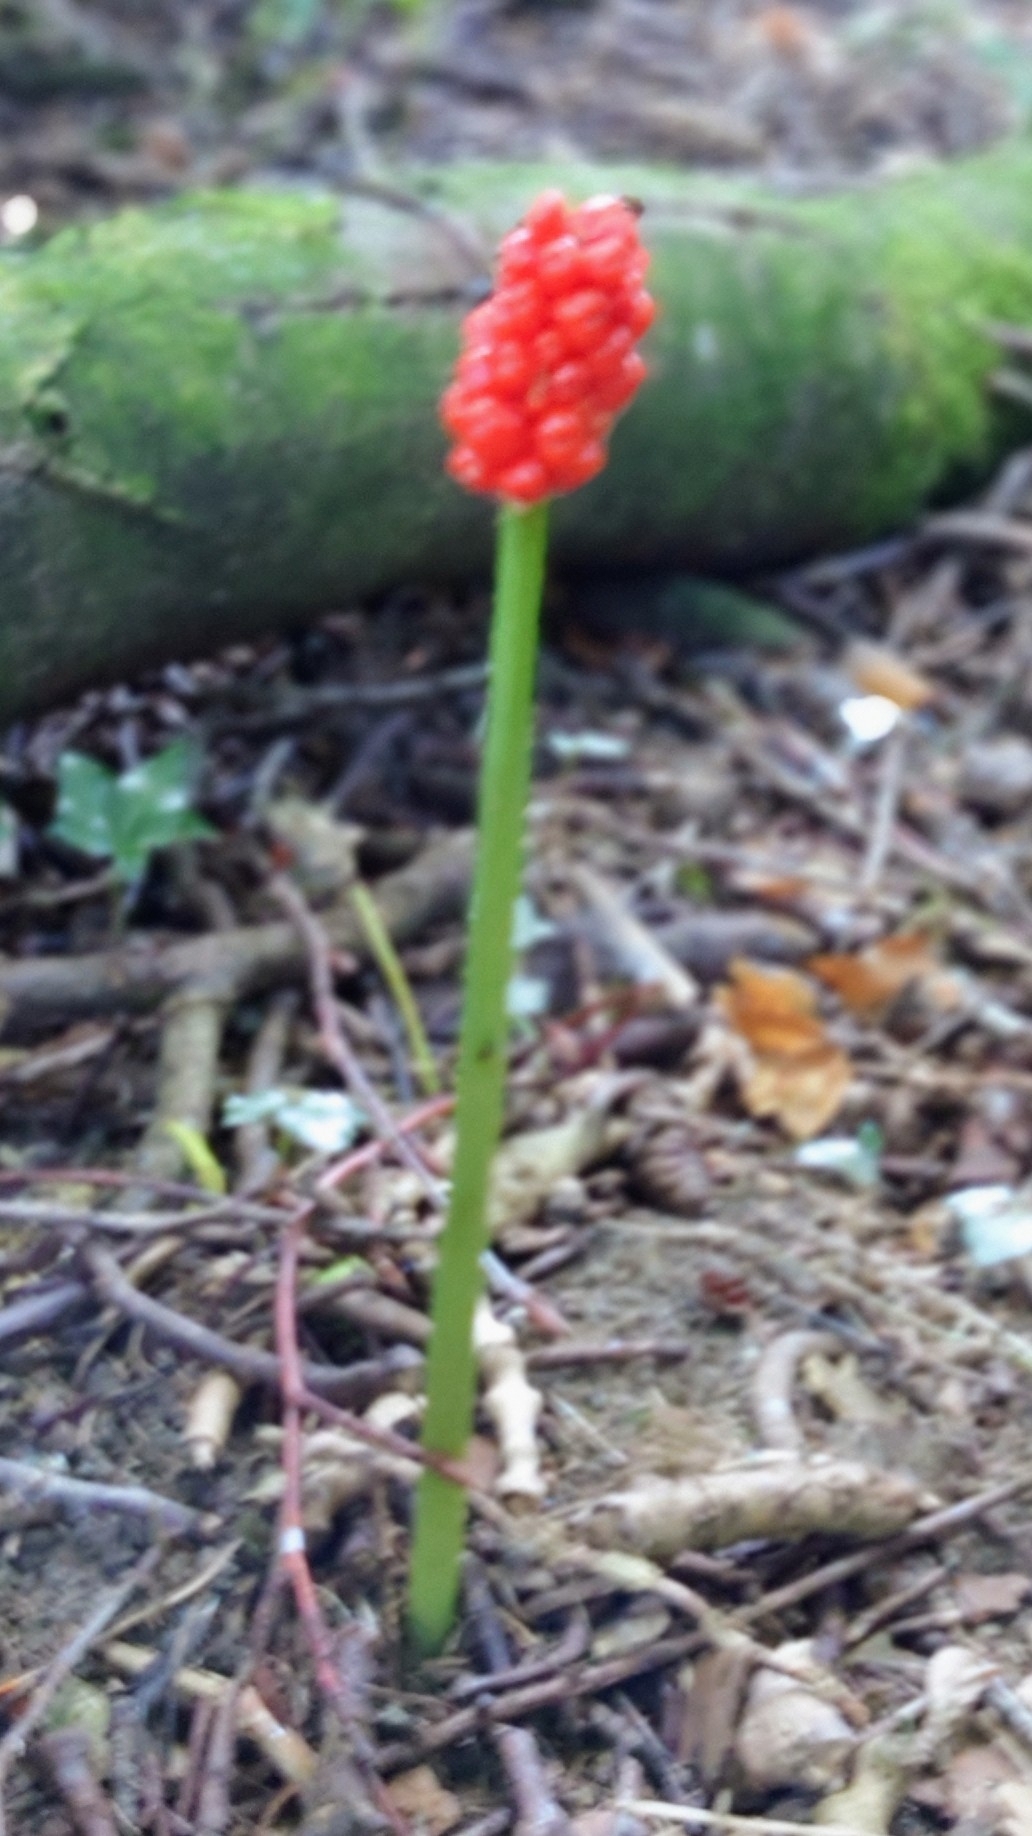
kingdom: Plantae
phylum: Tracheophyta
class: Liliopsida
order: Alismatales
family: Araceae
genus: Arum
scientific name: Arum maculatum
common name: Lords-and-ladies
